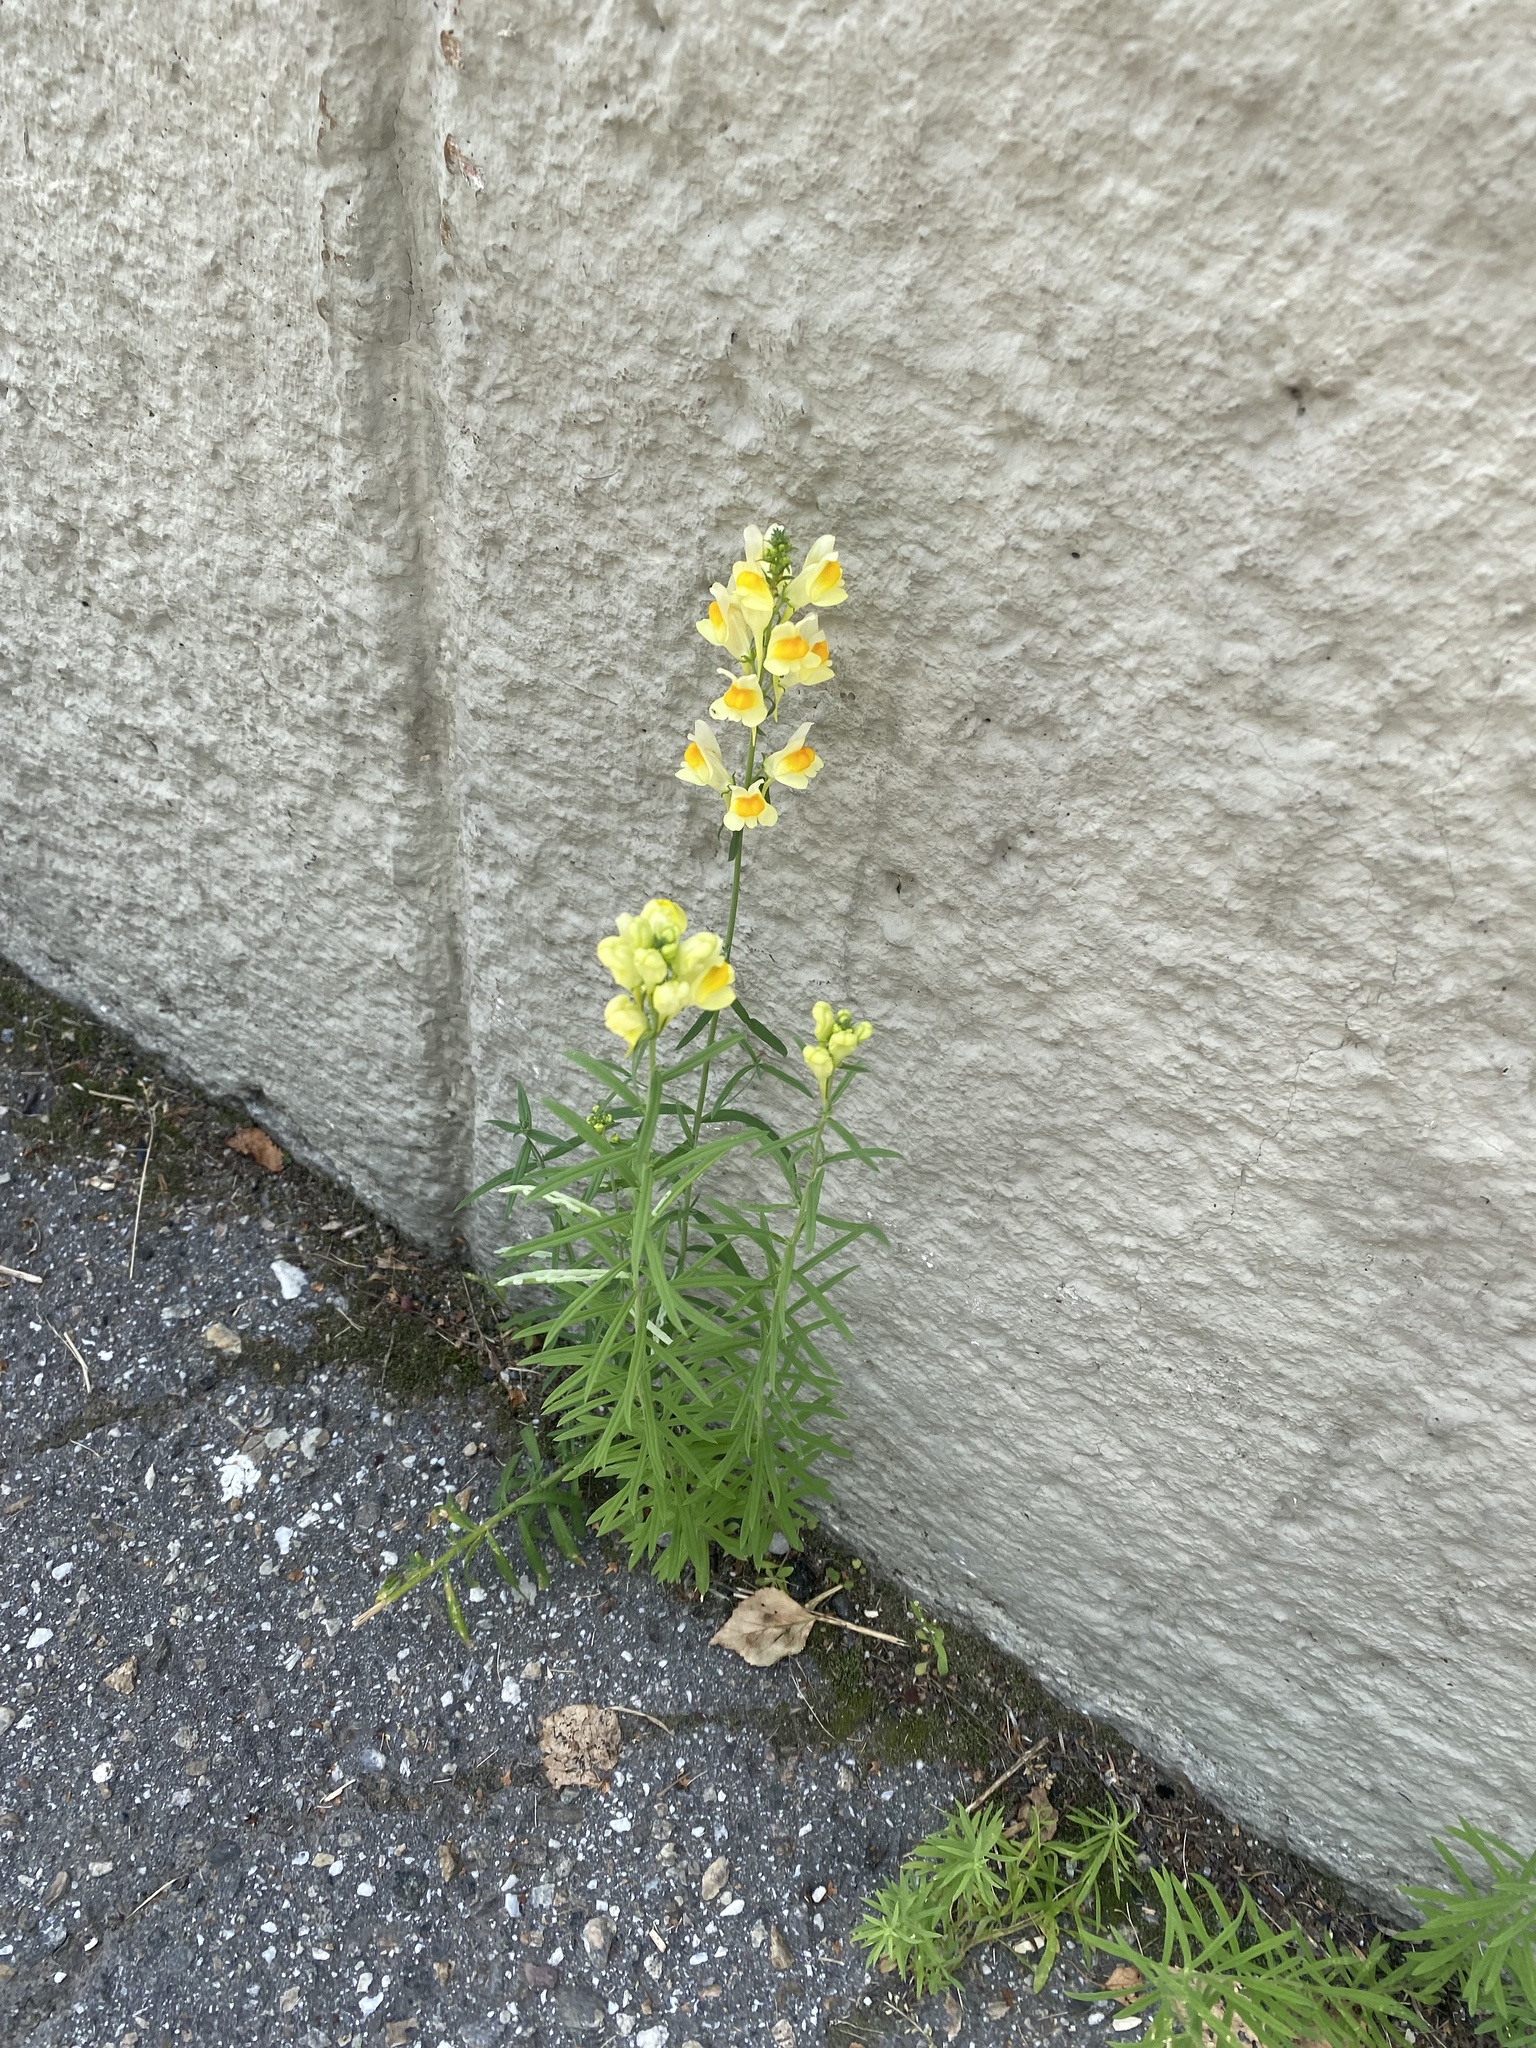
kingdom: Plantae
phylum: Tracheophyta
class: Magnoliopsida
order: Lamiales
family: Plantaginaceae
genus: Linaria
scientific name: Linaria vulgaris
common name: Butter and eggs
